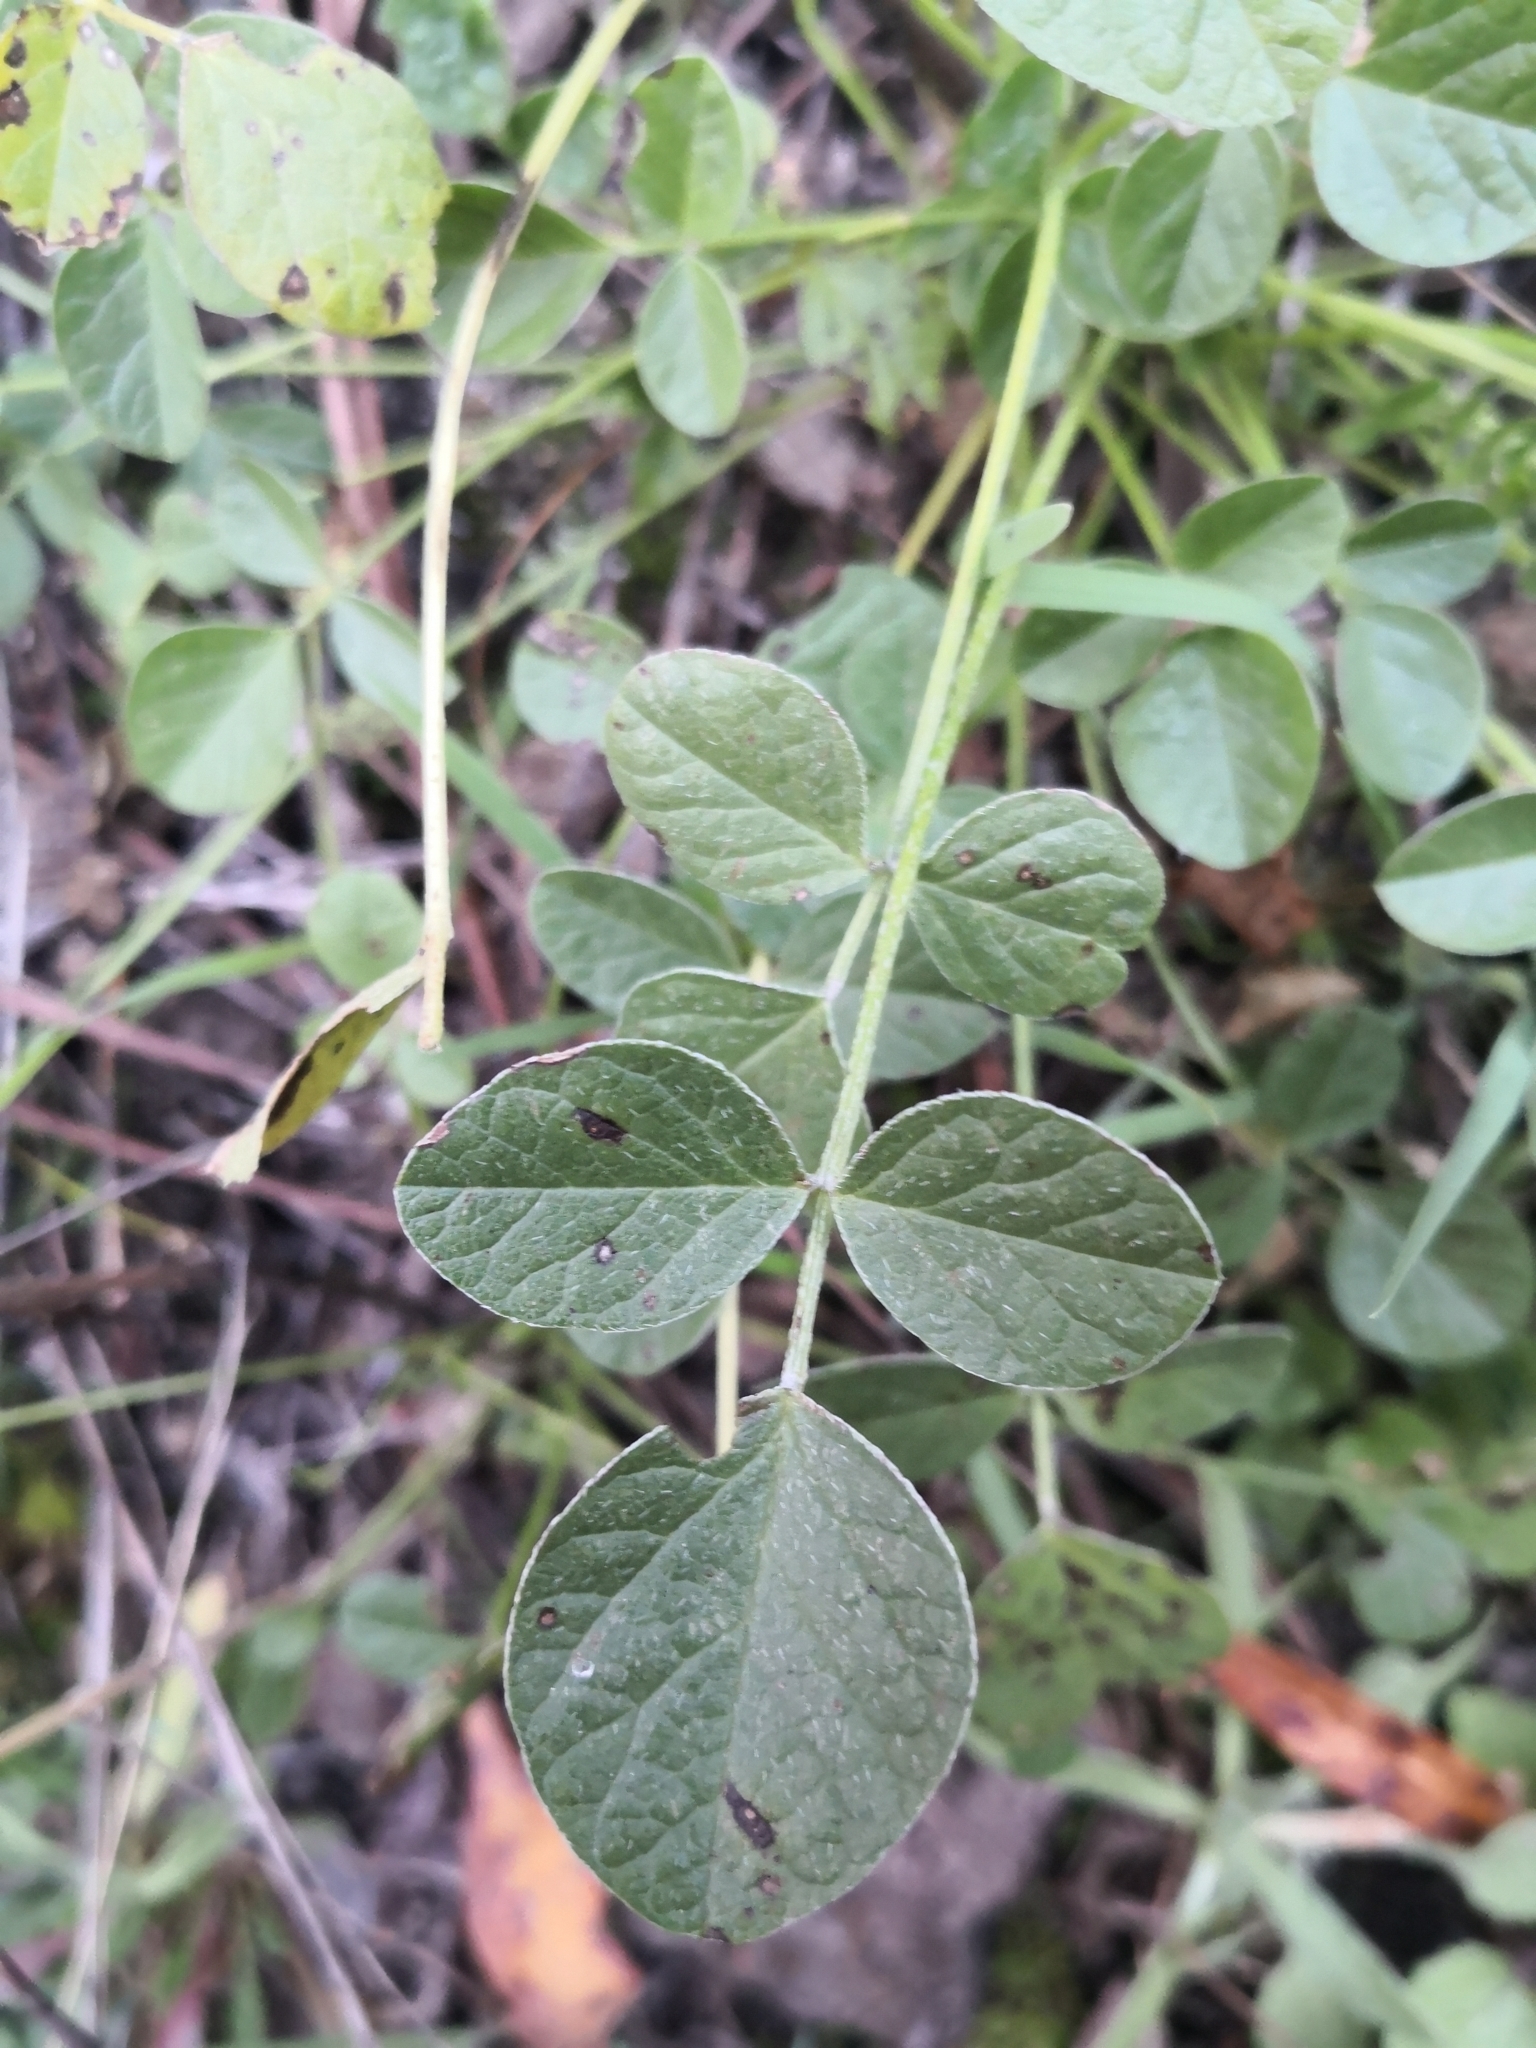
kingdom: Plantae
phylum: Tracheophyta
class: Magnoliopsida
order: Fabales
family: Fabaceae
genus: Bituminaria
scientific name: Bituminaria bituminosa
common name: Arabian pea
